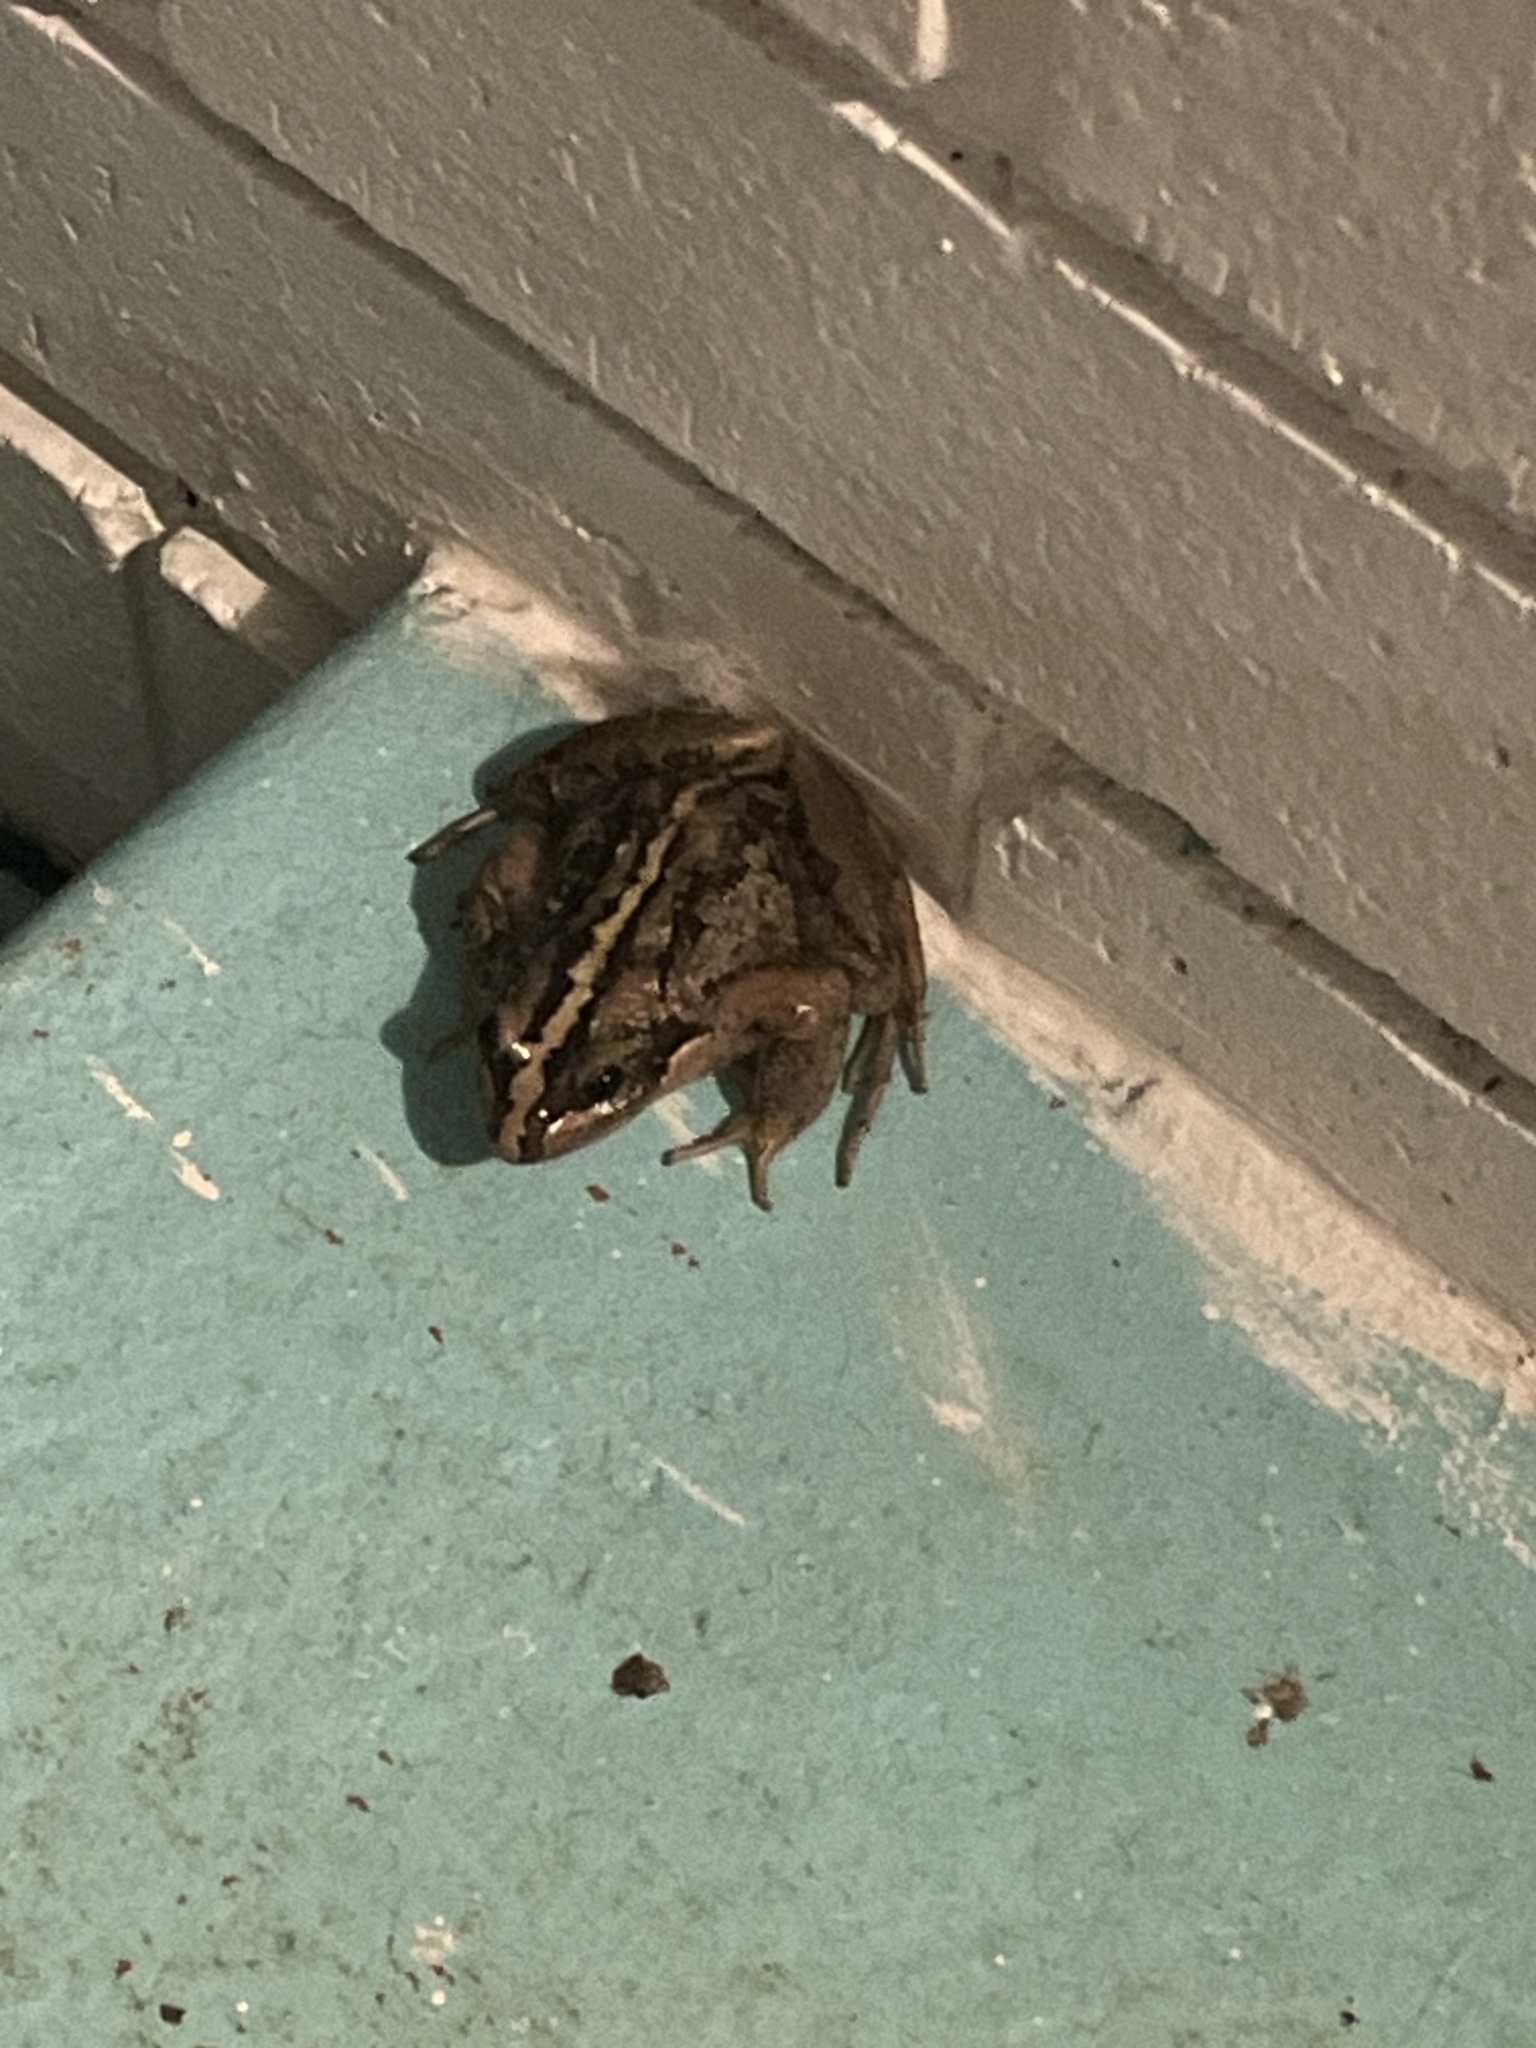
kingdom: Animalia
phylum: Chordata
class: Amphibia
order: Anura
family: Limnodynastidae
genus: Limnodynastes
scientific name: Limnodynastes peronii
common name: Brown frog
